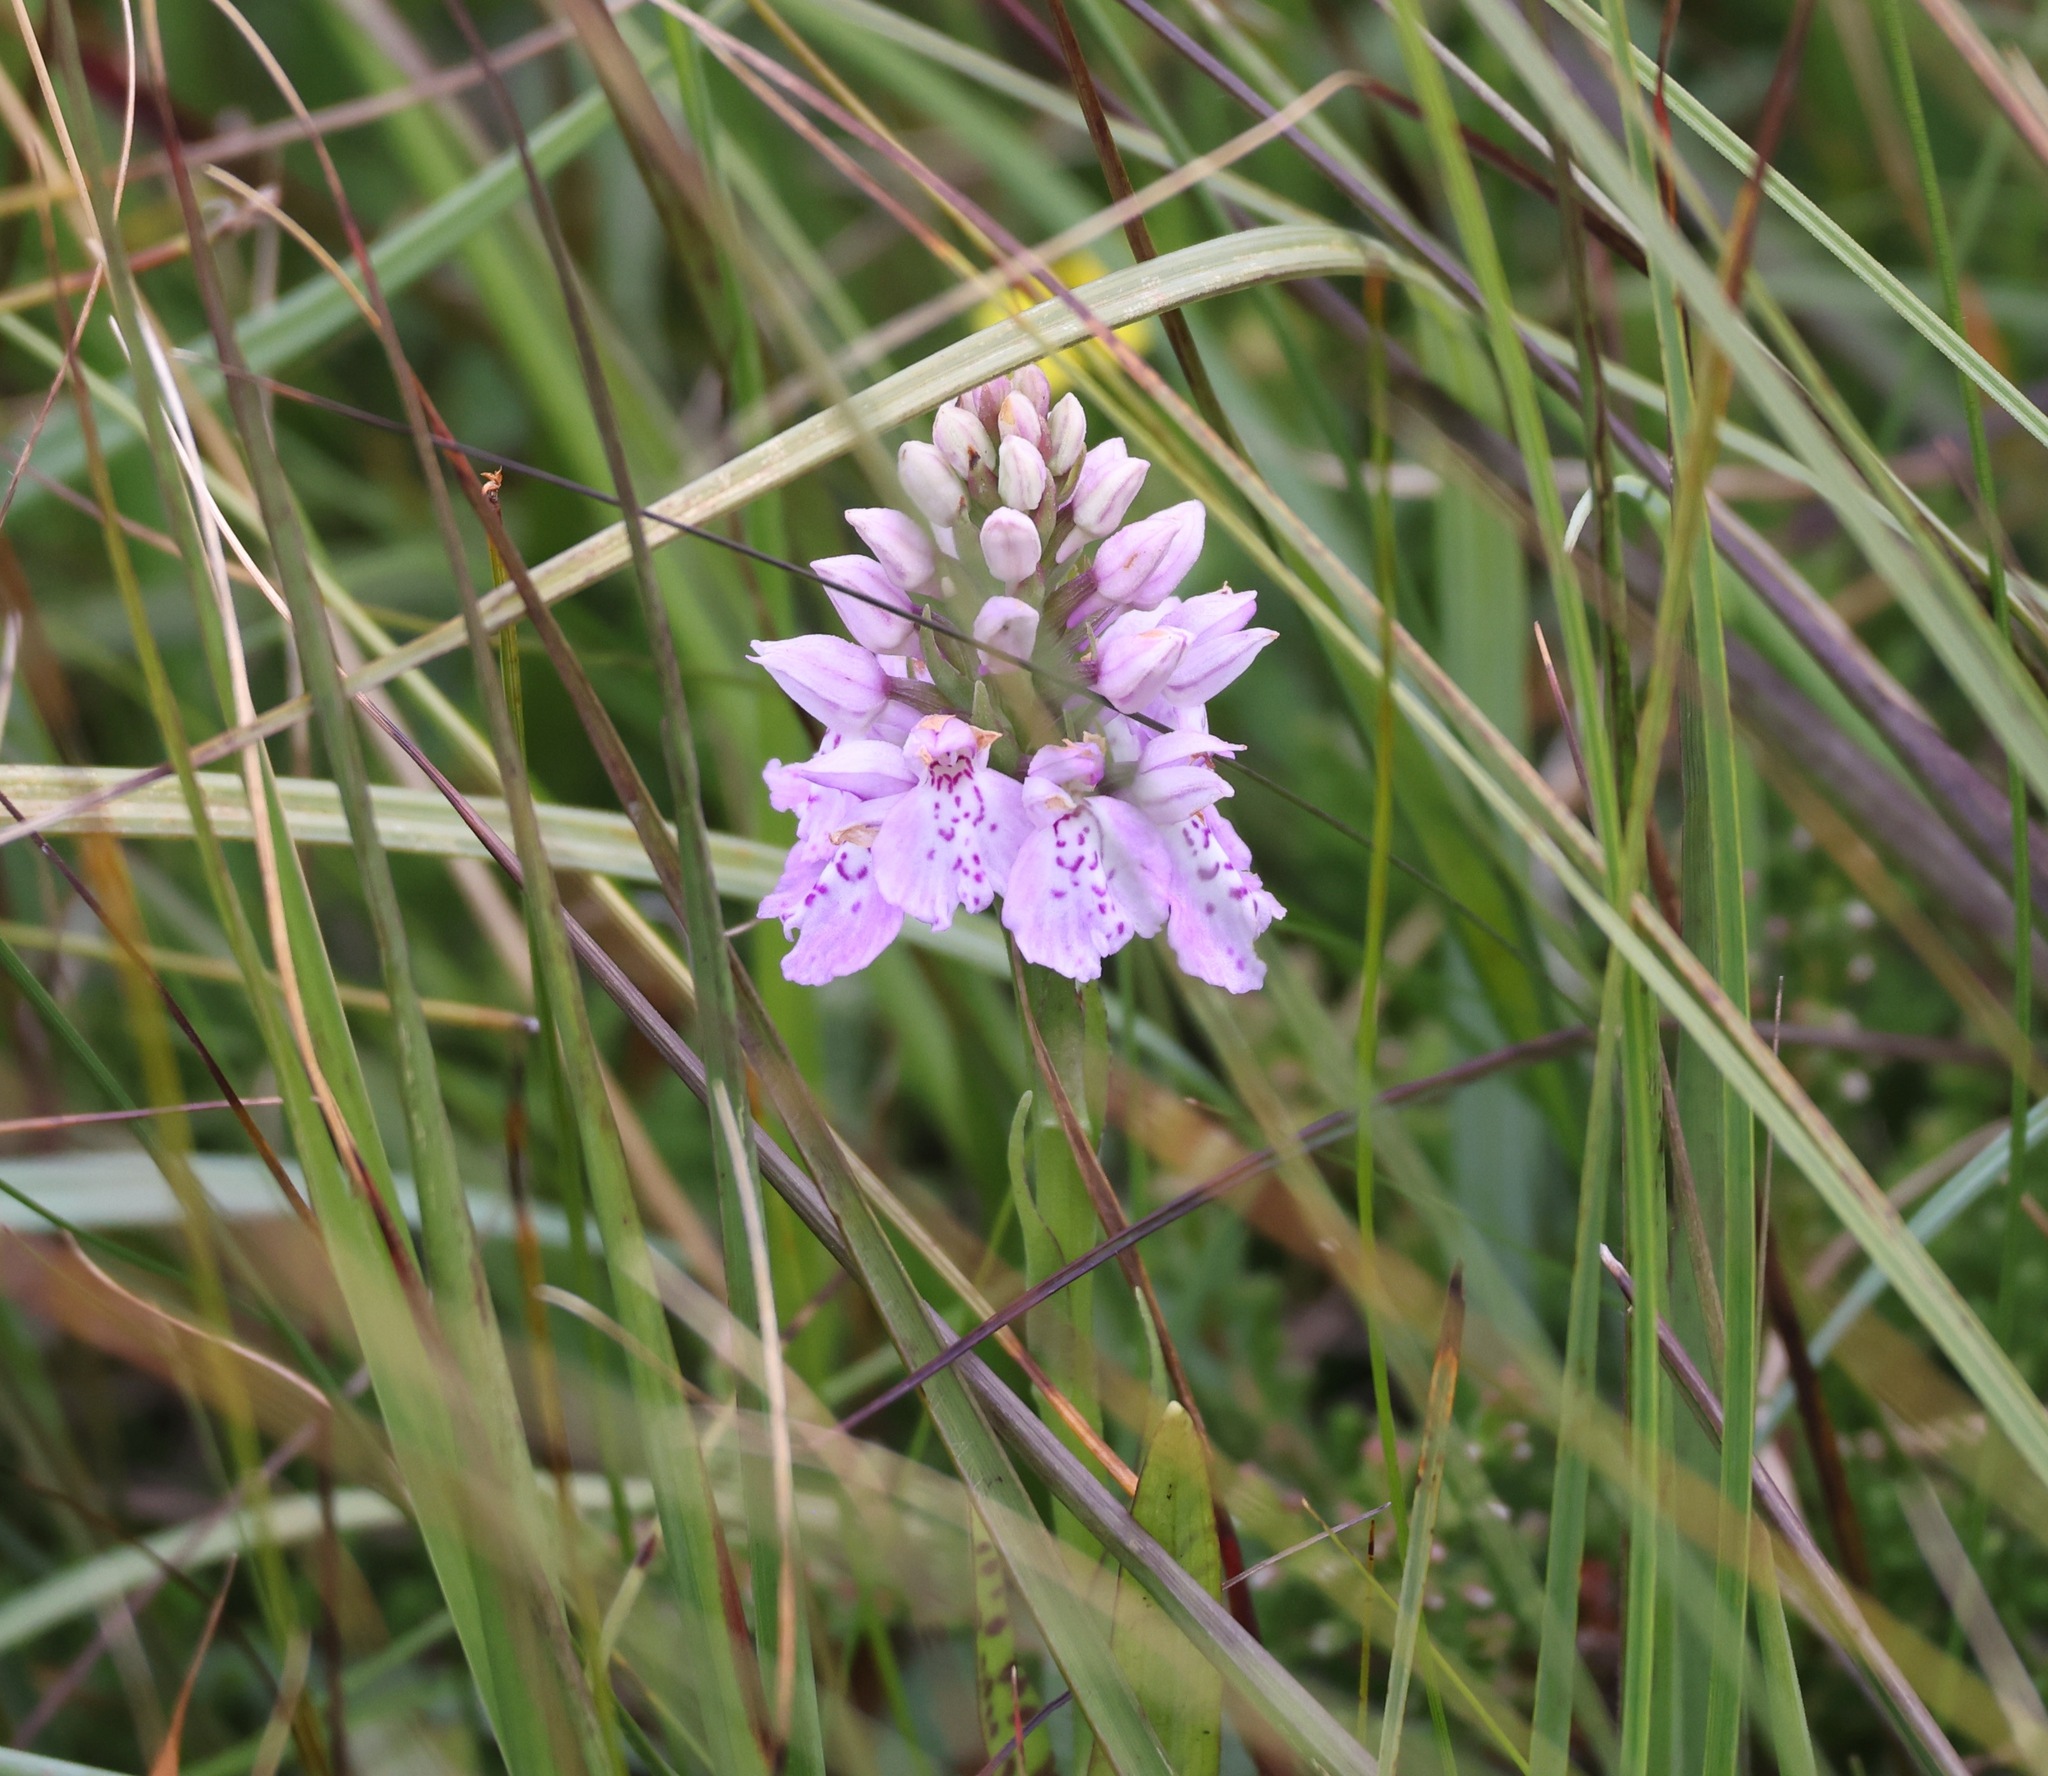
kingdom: Plantae
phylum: Tracheophyta
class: Liliopsida
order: Asparagales
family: Orchidaceae
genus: Dactylorhiza
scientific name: Dactylorhiza maculata
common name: Heath spotted-orchid
